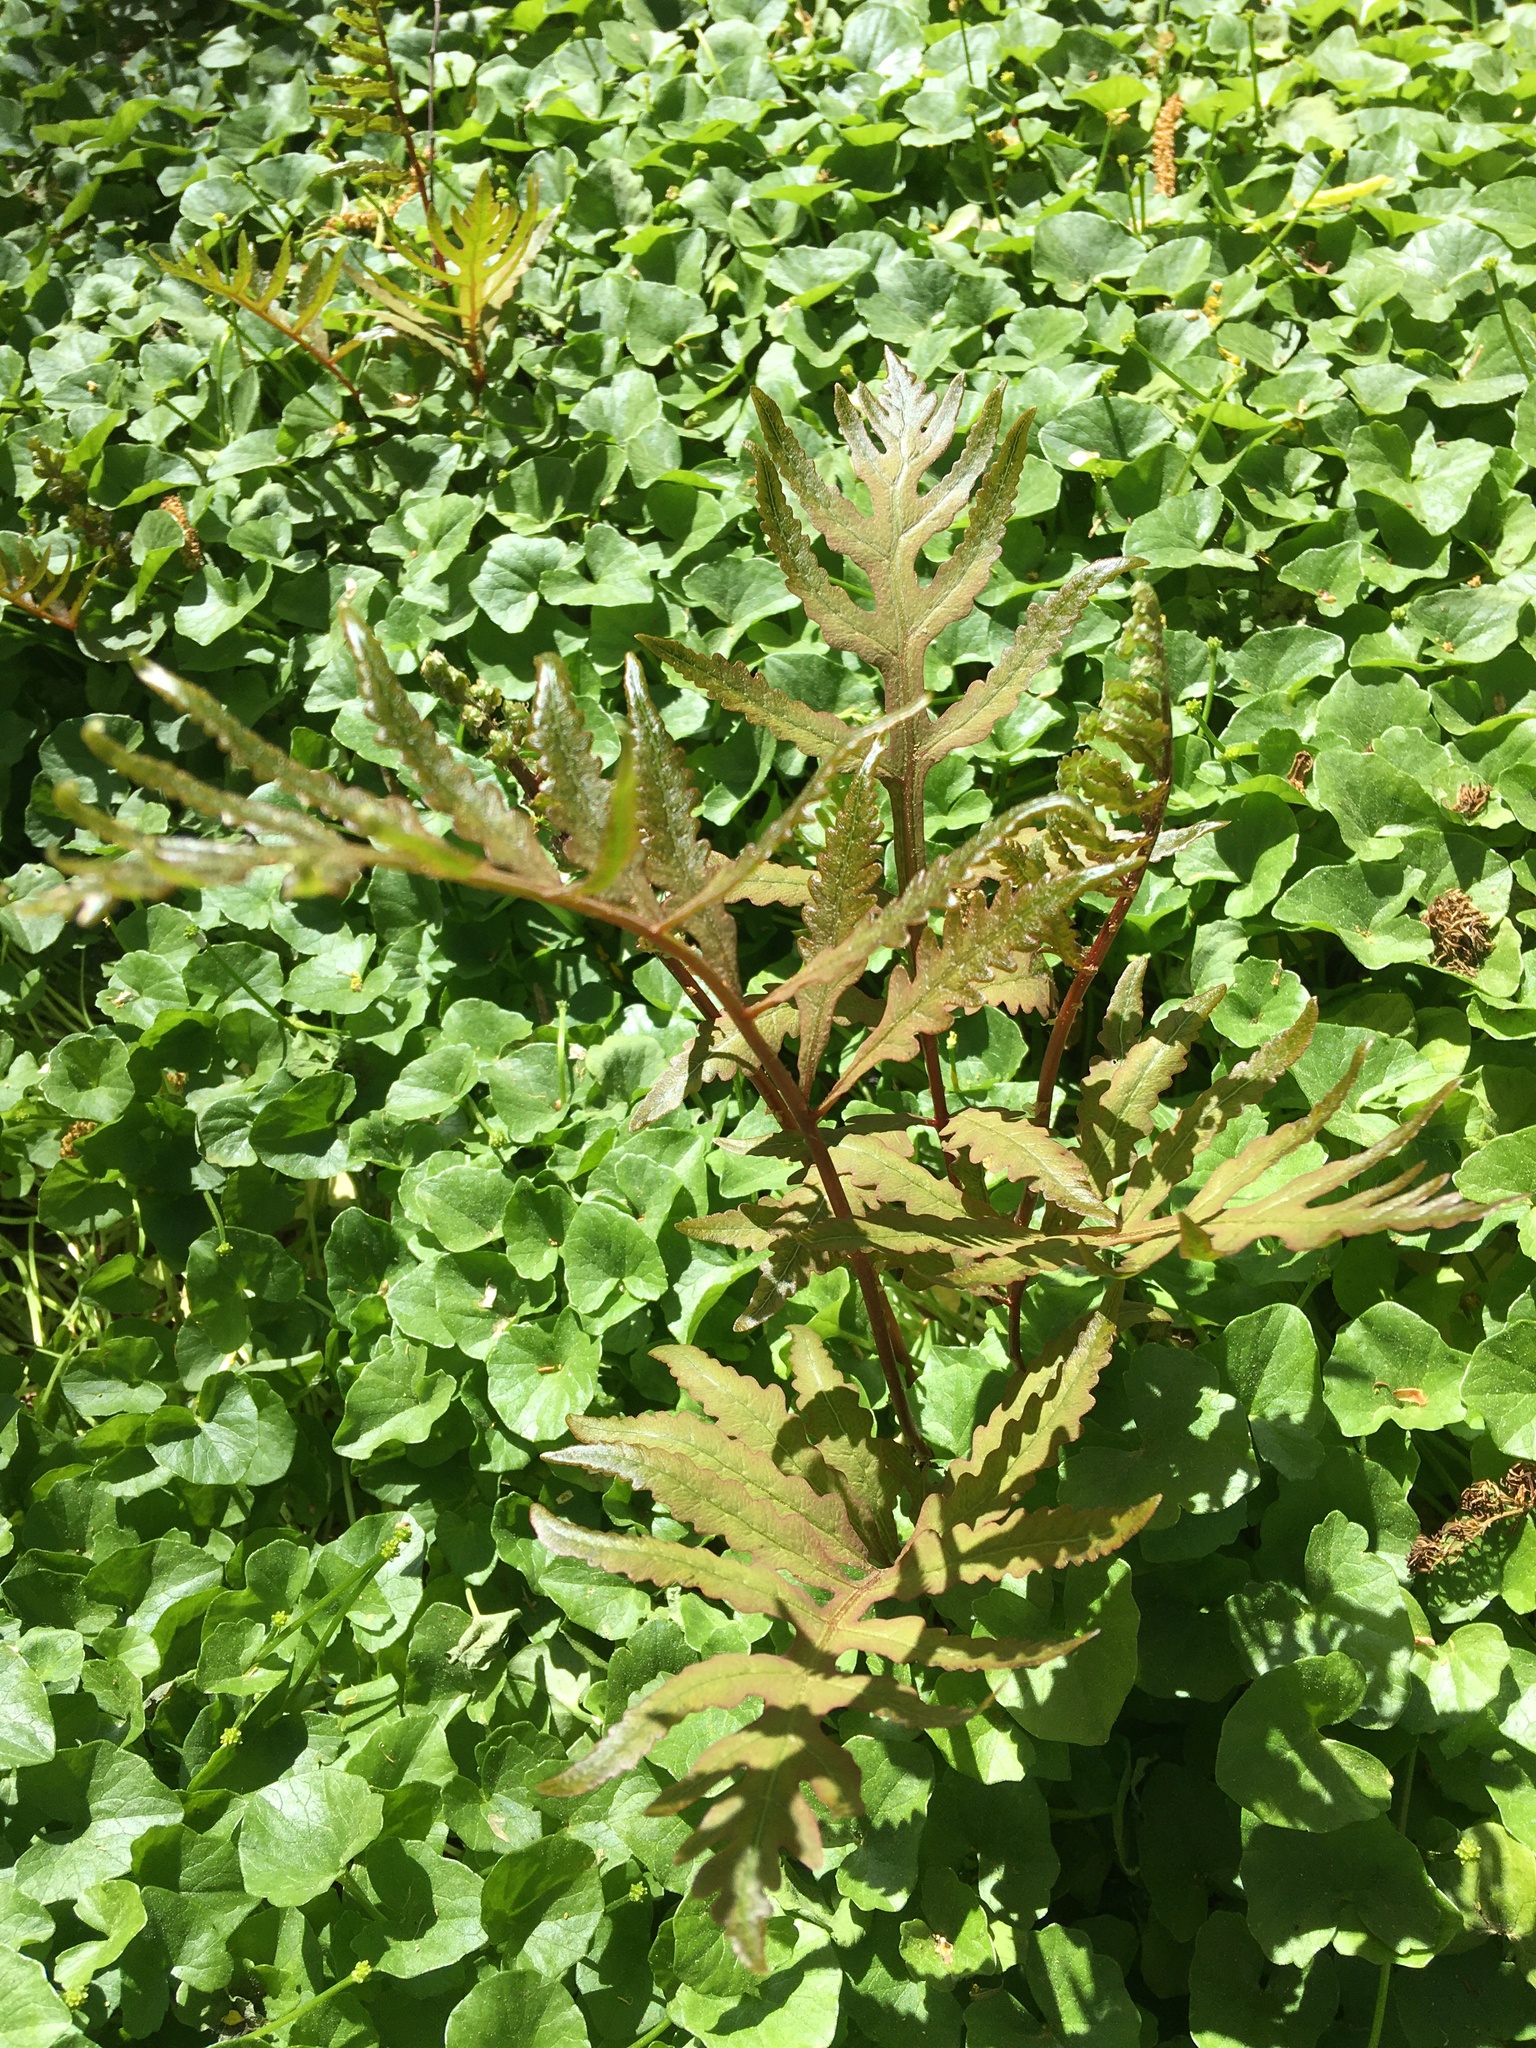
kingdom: Plantae
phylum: Tracheophyta
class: Polypodiopsida
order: Polypodiales
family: Onocleaceae
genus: Onoclea
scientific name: Onoclea sensibilis
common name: Sensitive fern
